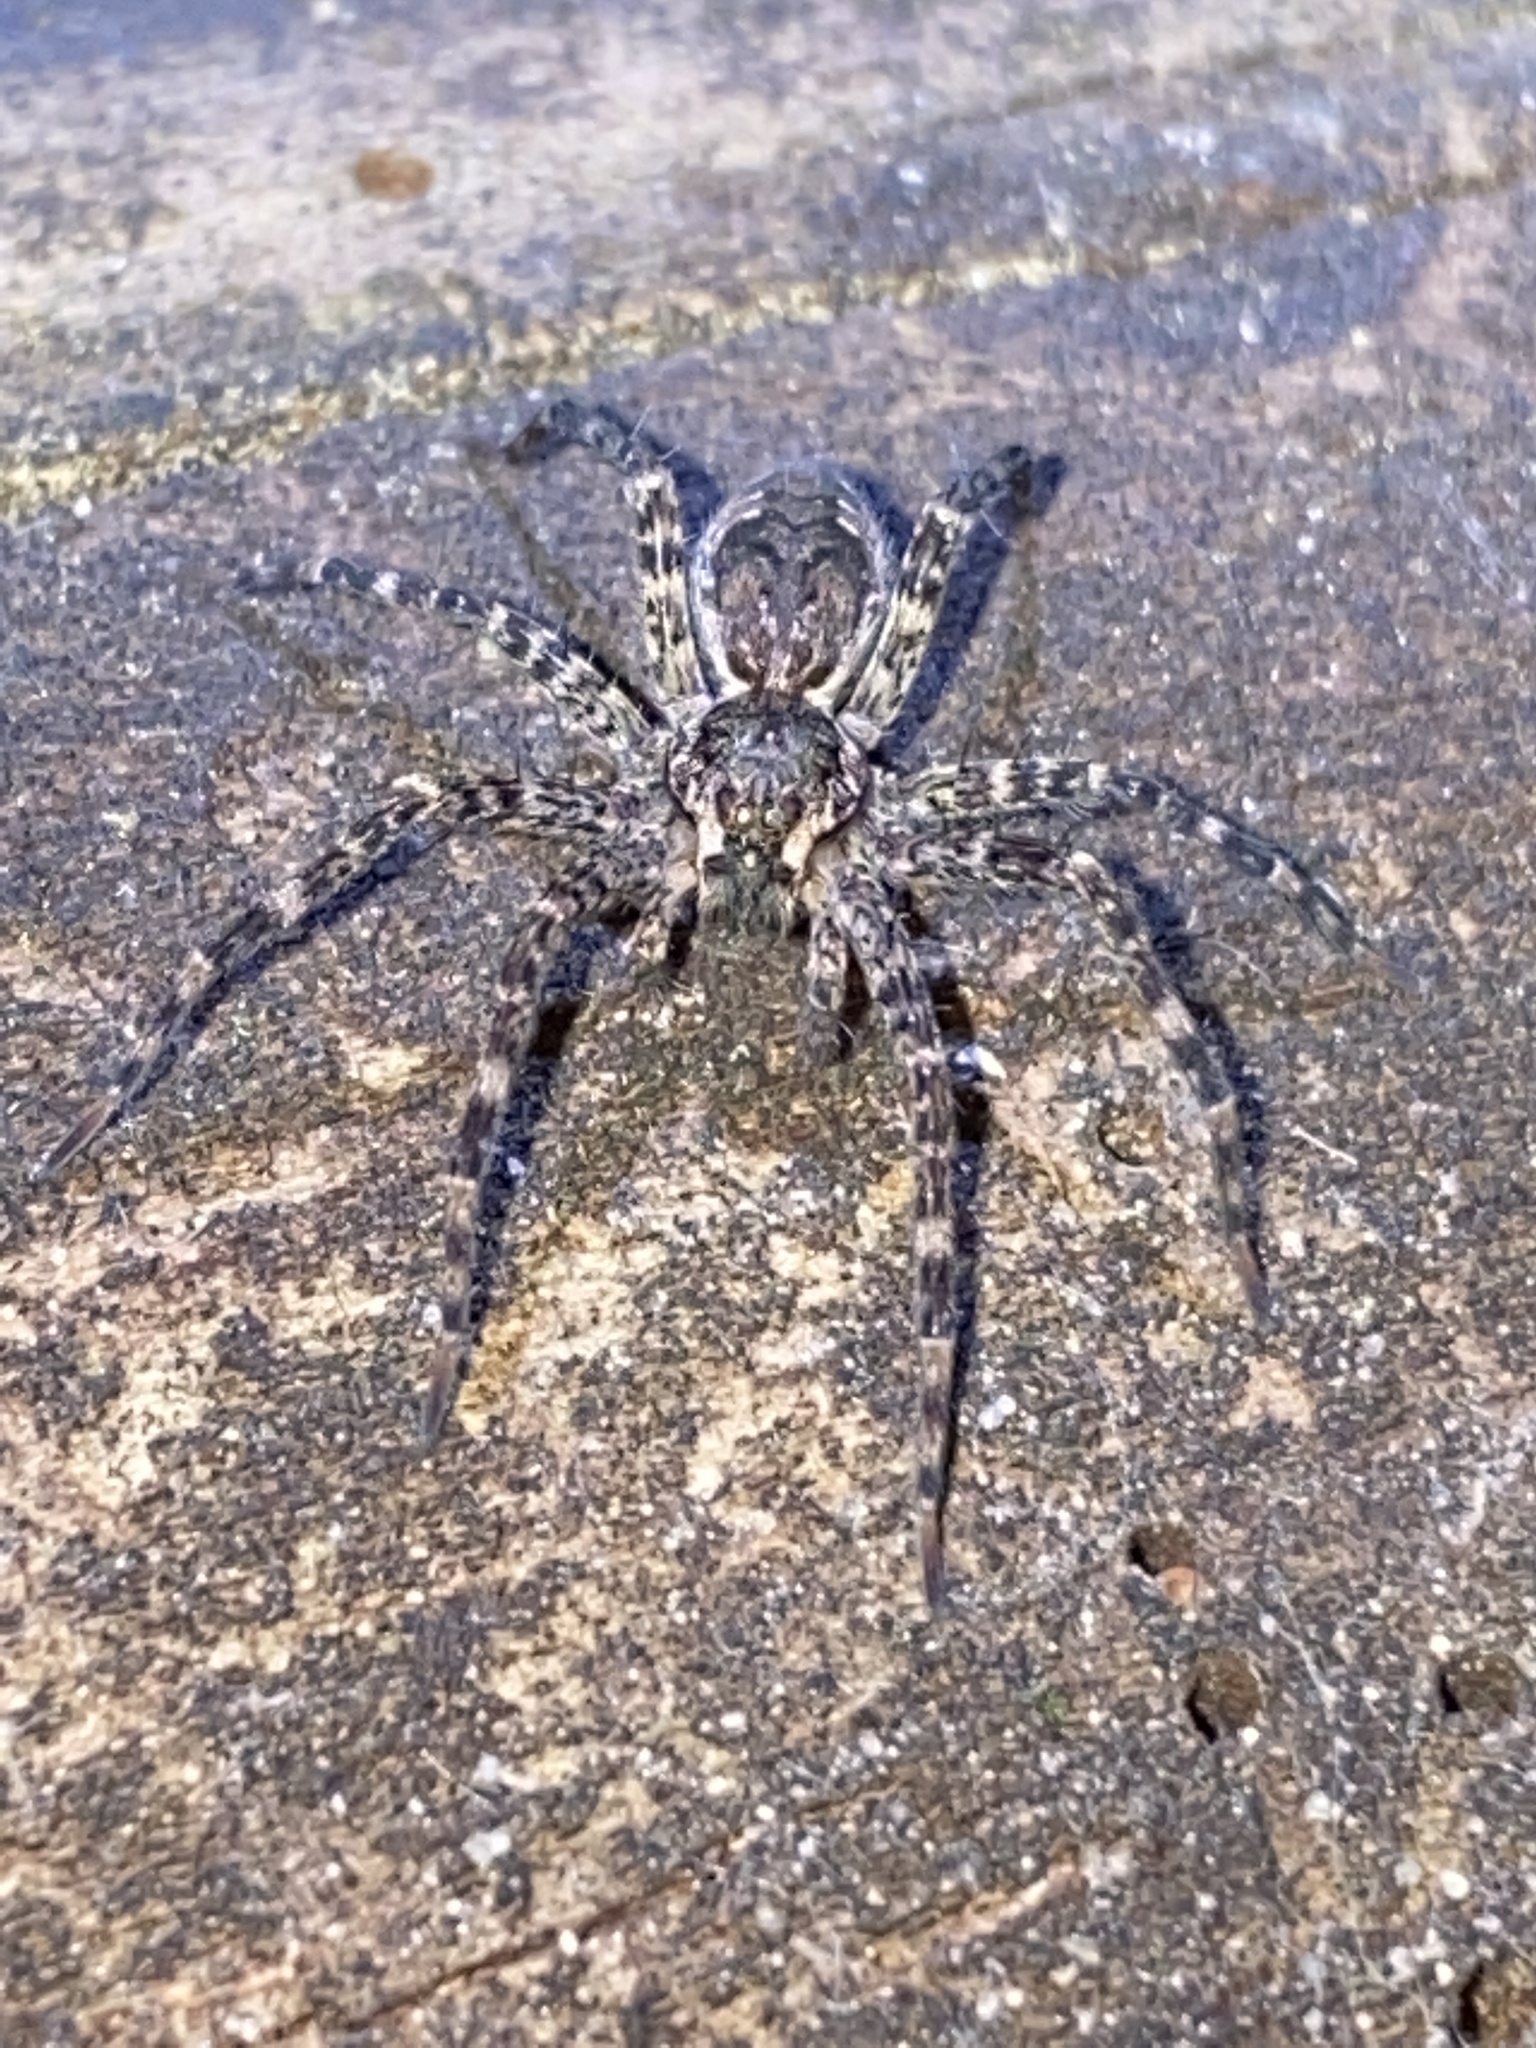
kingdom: Animalia
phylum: Arthropoda
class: Arachnida
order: Araneae
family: Pisauridae
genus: Dolomedes
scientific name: Dolomedes tenebrosus
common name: Dark fishing spider
